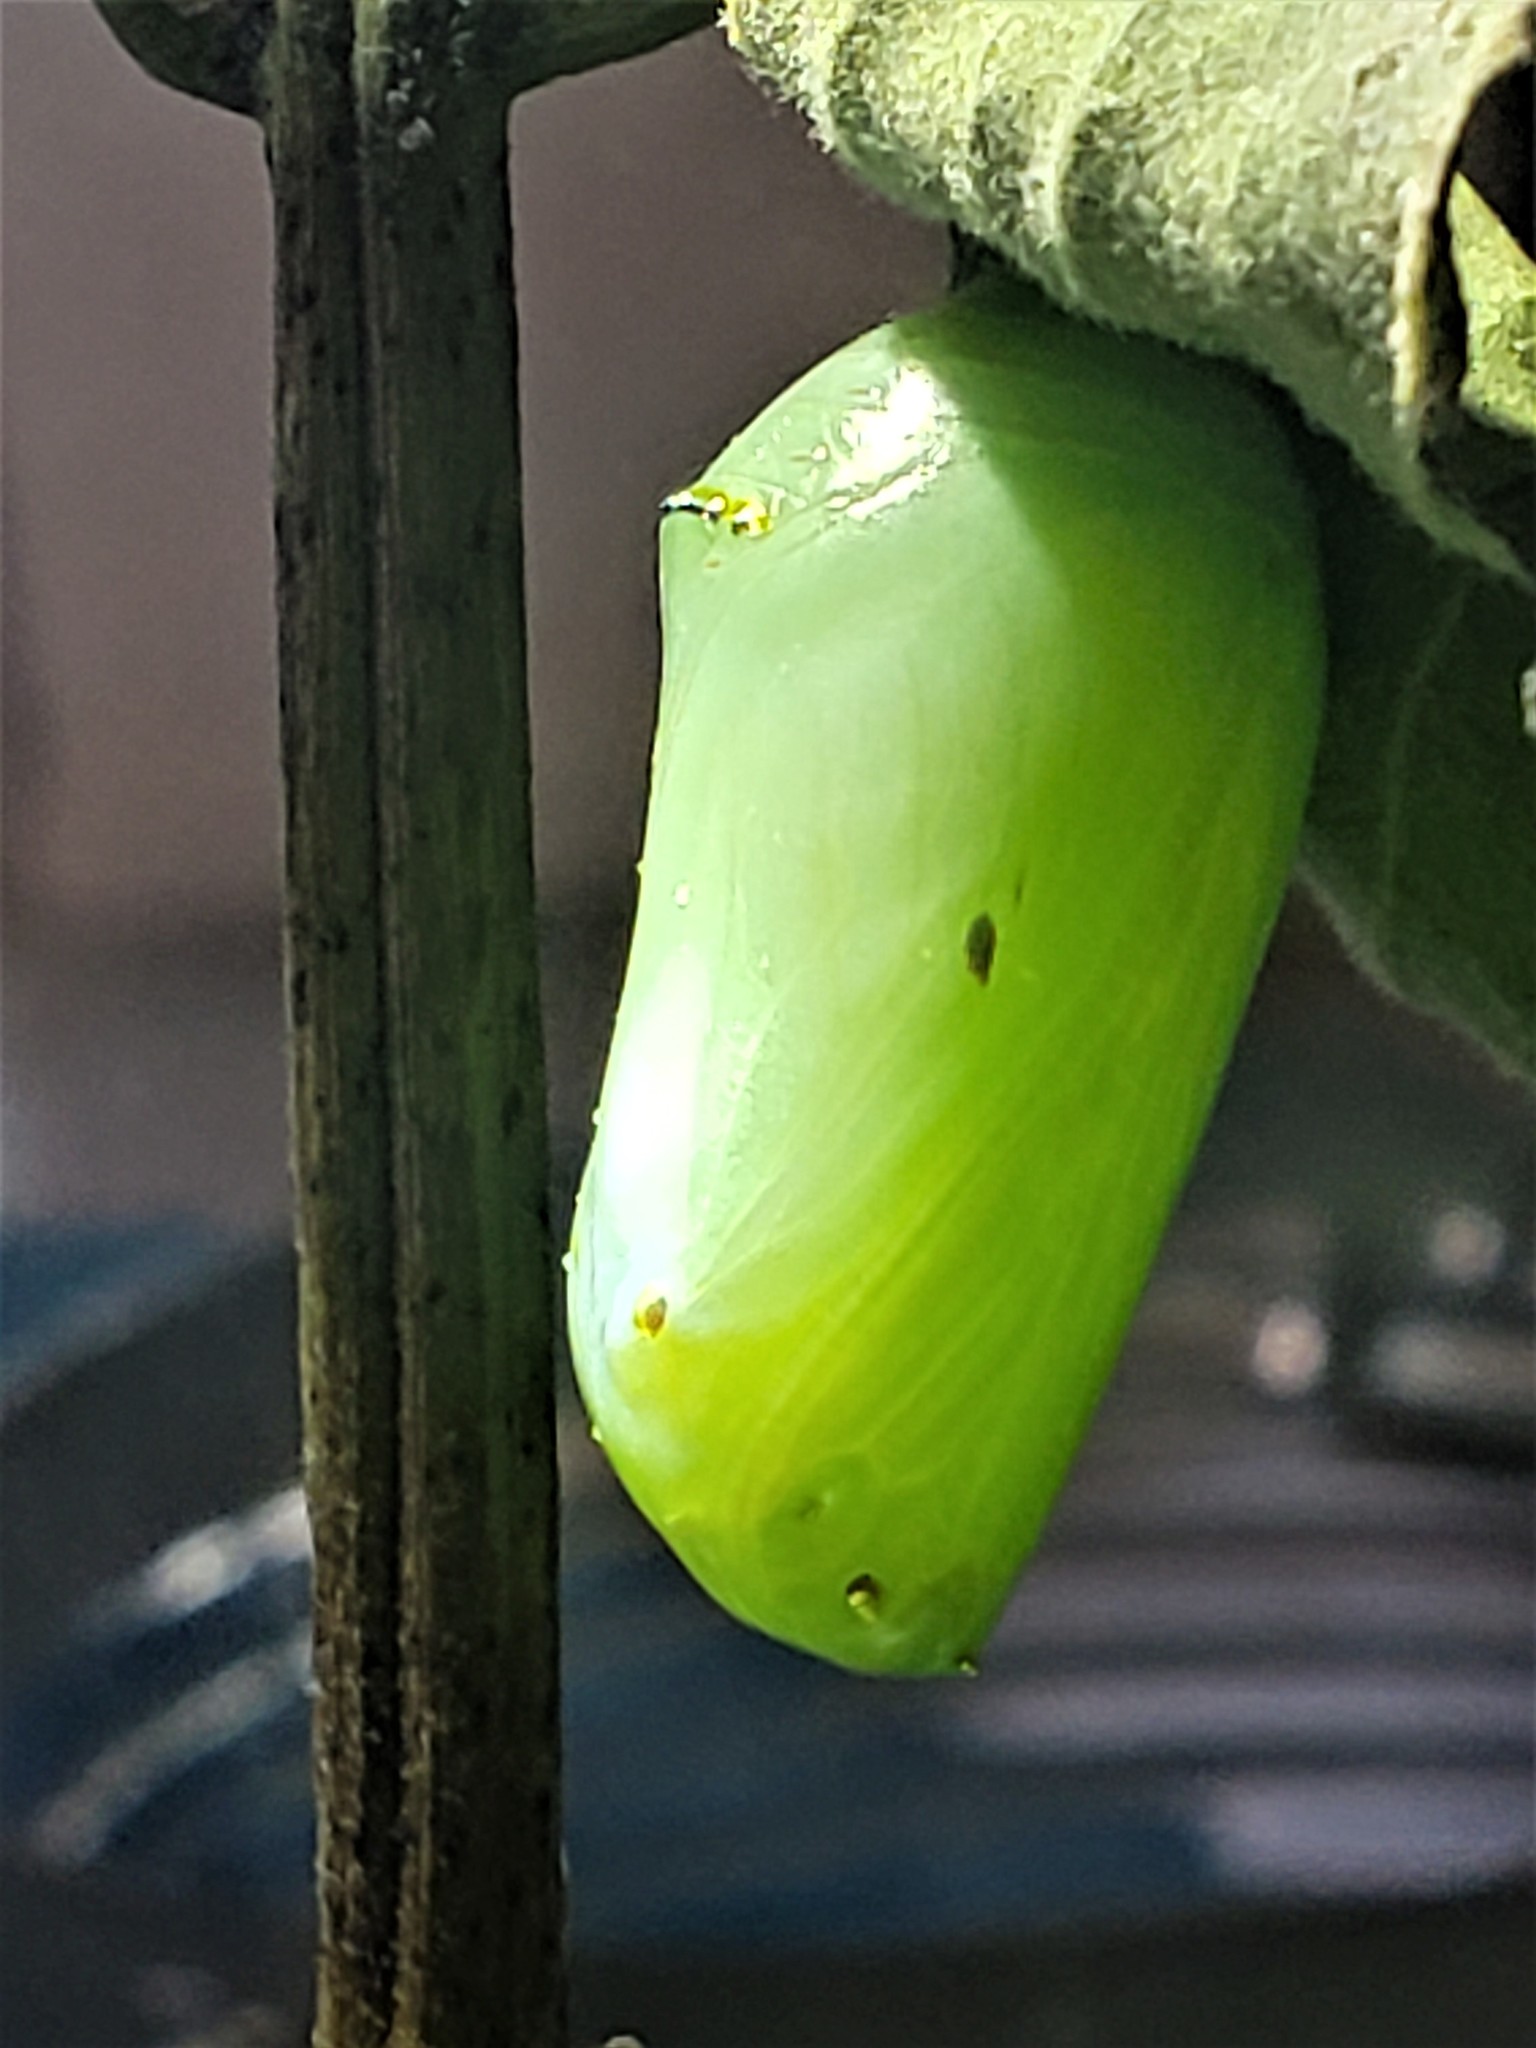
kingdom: Animalia
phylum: Arthropoda
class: Insecta
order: Lepidoptera
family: Nymphalidae
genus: Danaus
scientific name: Danaus plexippus
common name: Monarch
